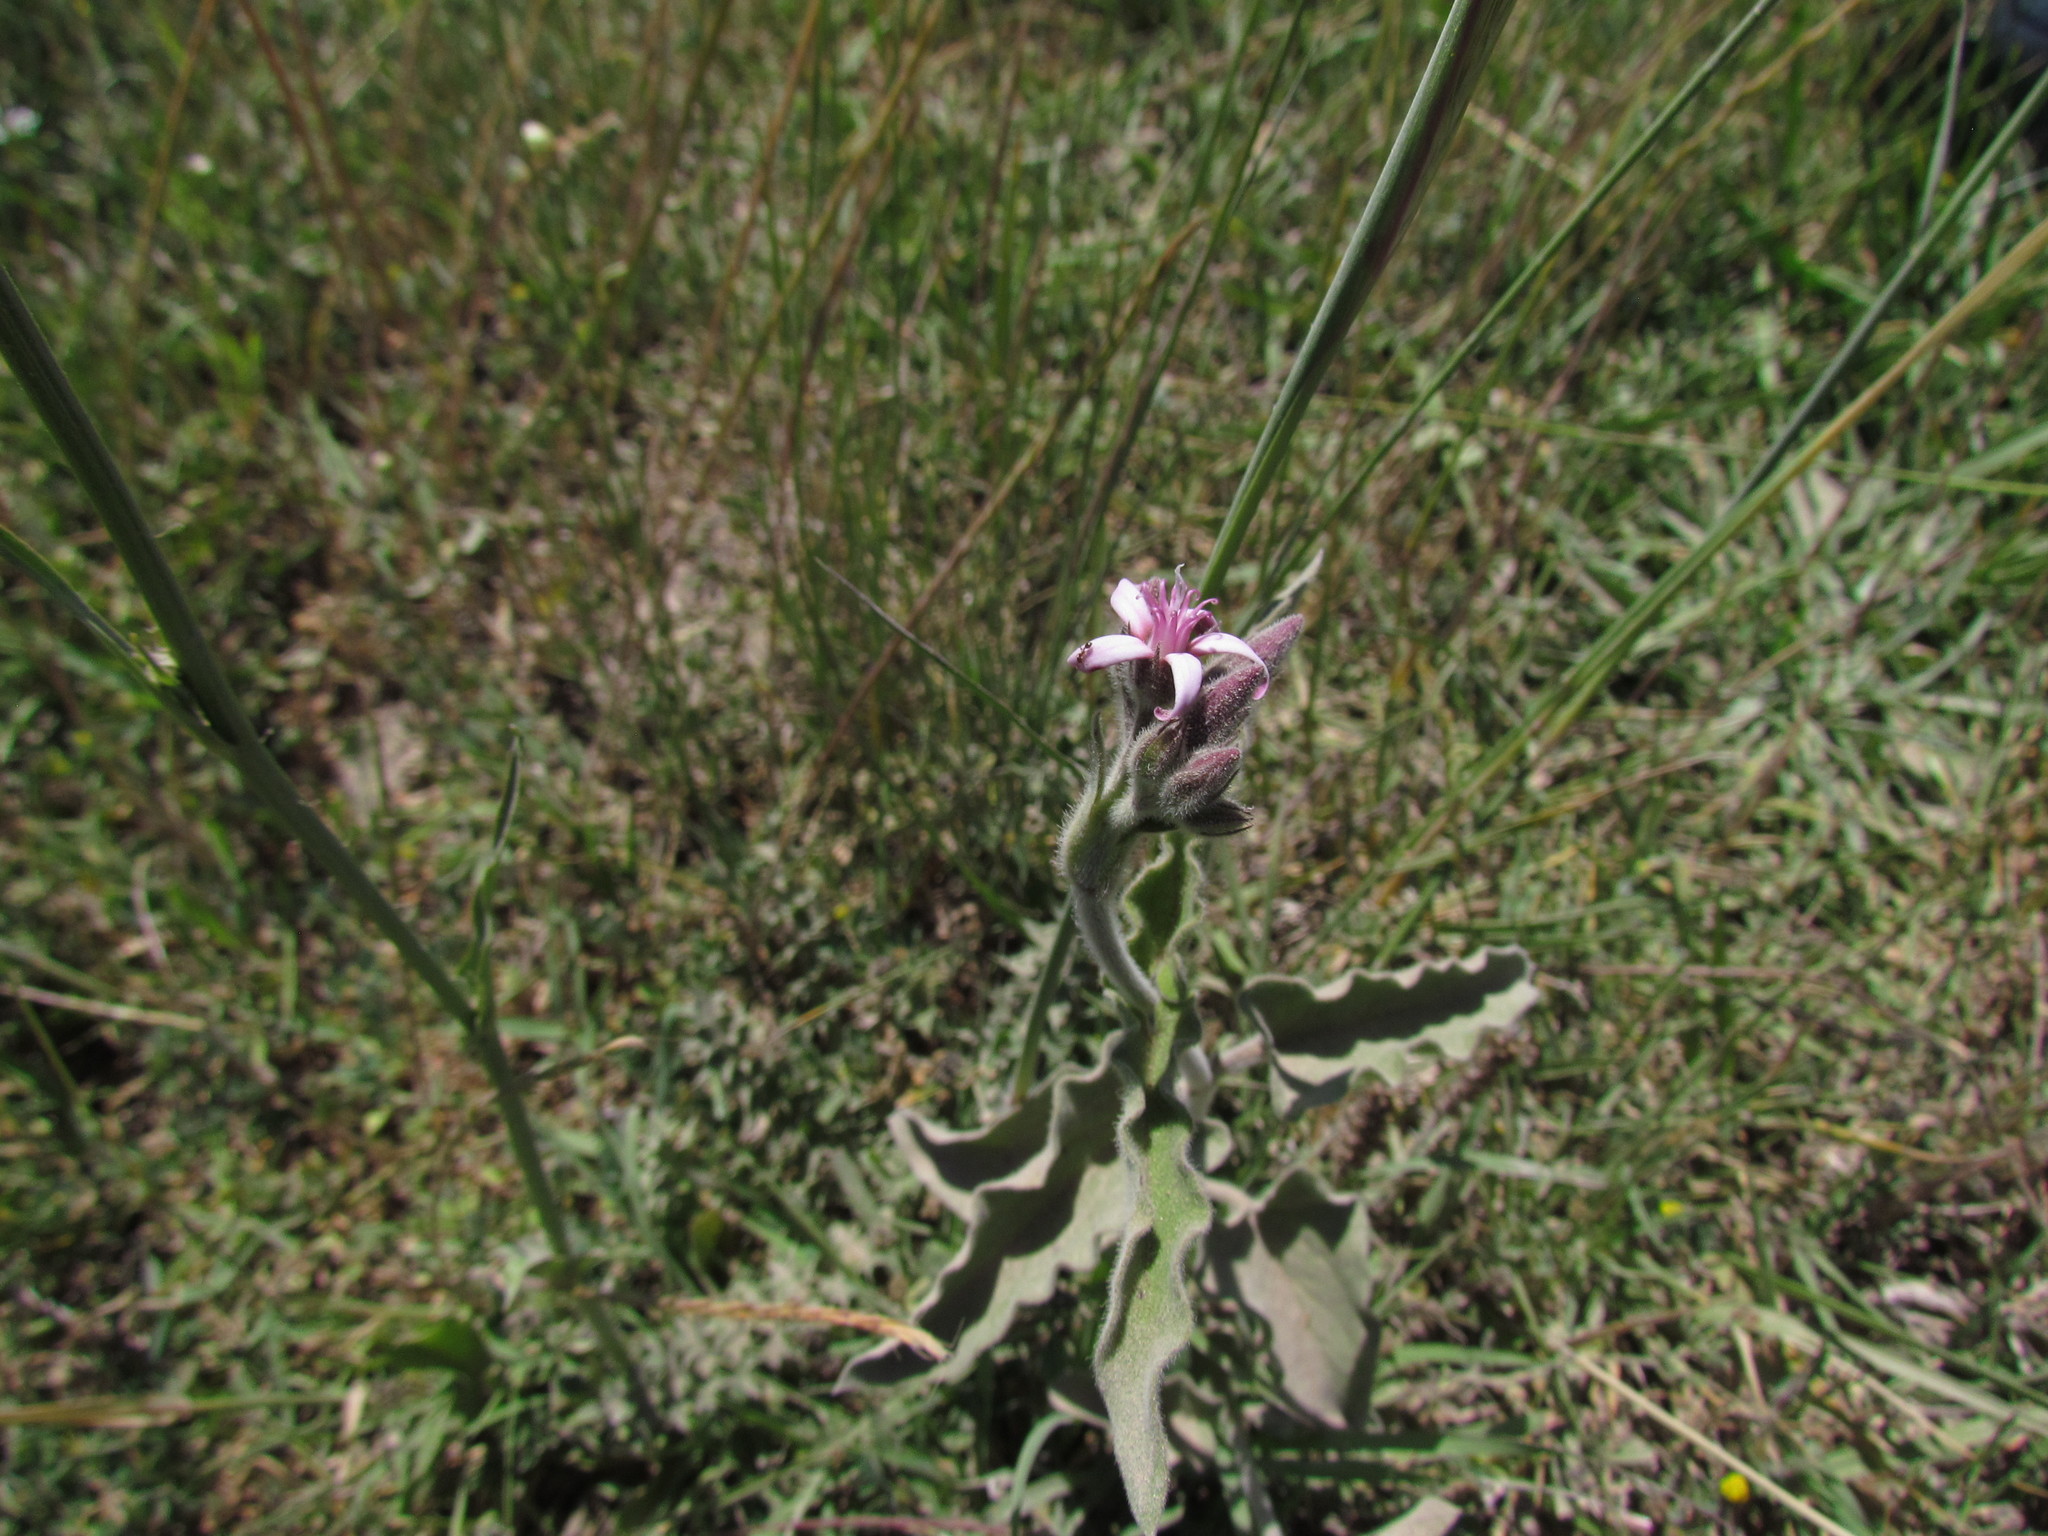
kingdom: Plantae
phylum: Tracheophyta
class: Magnoliopsida
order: Gentianales
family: Apocynaceae
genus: Oxypetalum
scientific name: Oxypetalum solanoides
